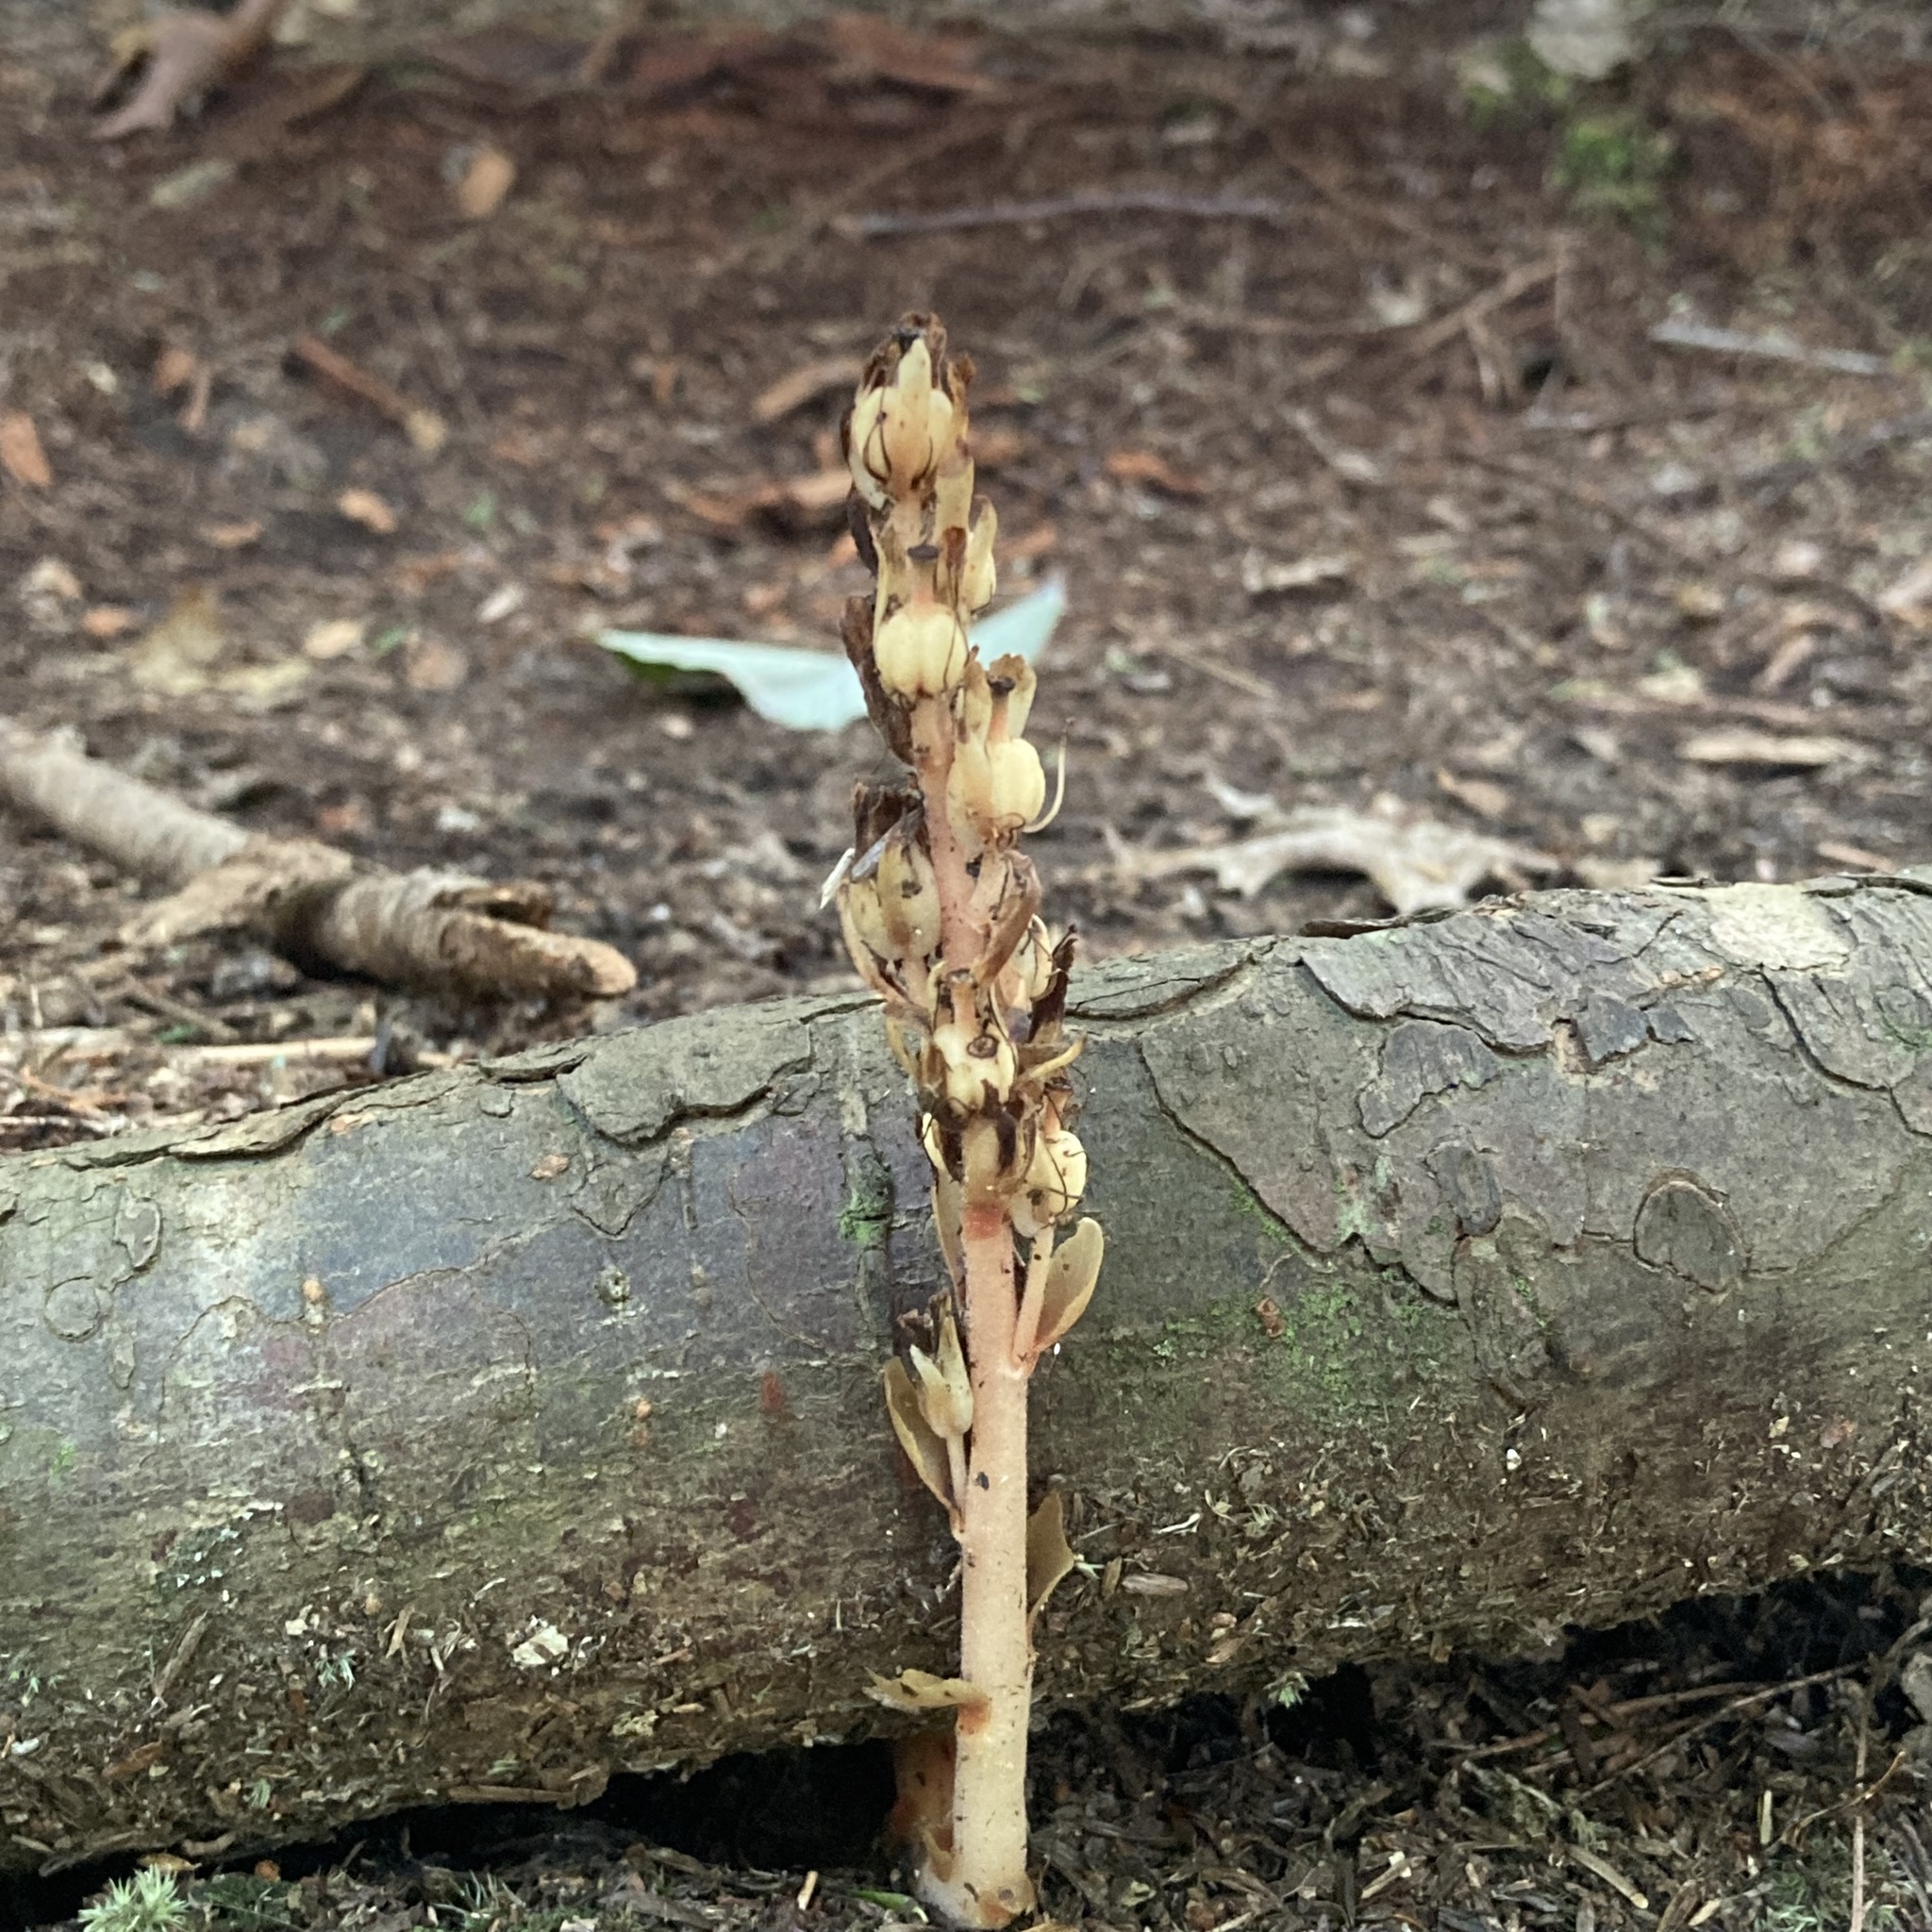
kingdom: Plantae
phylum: Tracheophyta
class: Magnoliopsida
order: Ericales
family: Ericaceae
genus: Hypopitys
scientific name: Hypopitys monotropa
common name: Yellow bird's-nest
